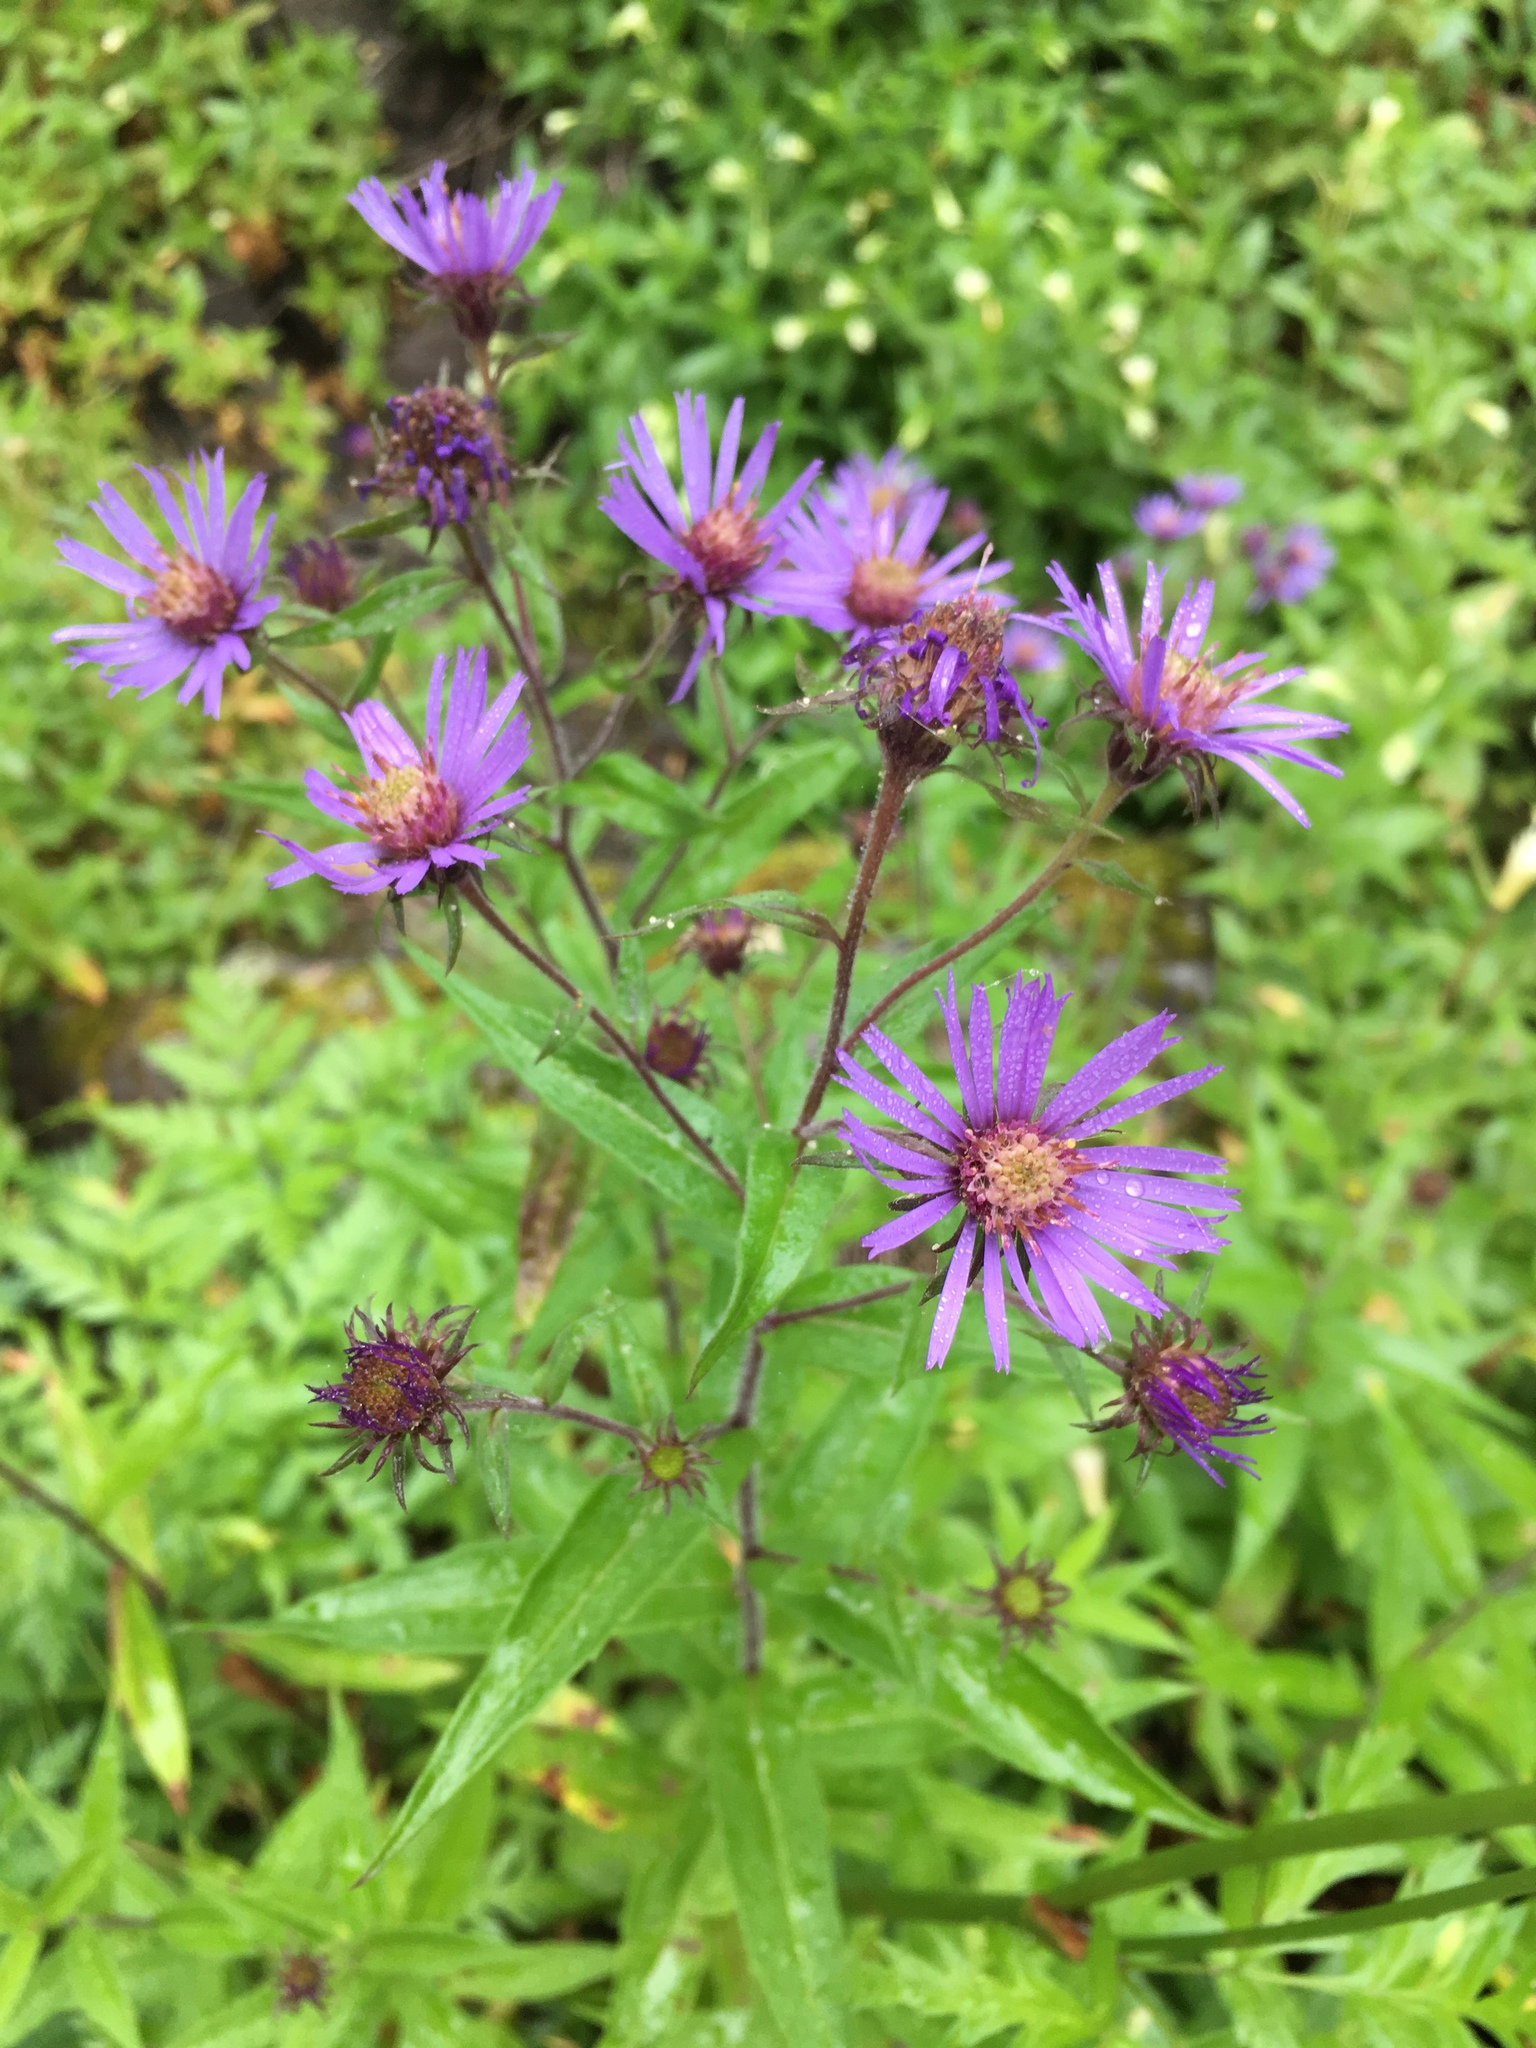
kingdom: Plantae
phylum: Tracheophyta
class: Magnoliopsida
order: Asterales
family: Asteraceae
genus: Canadanthus
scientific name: Canadanthus modestus
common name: Great northern aster
